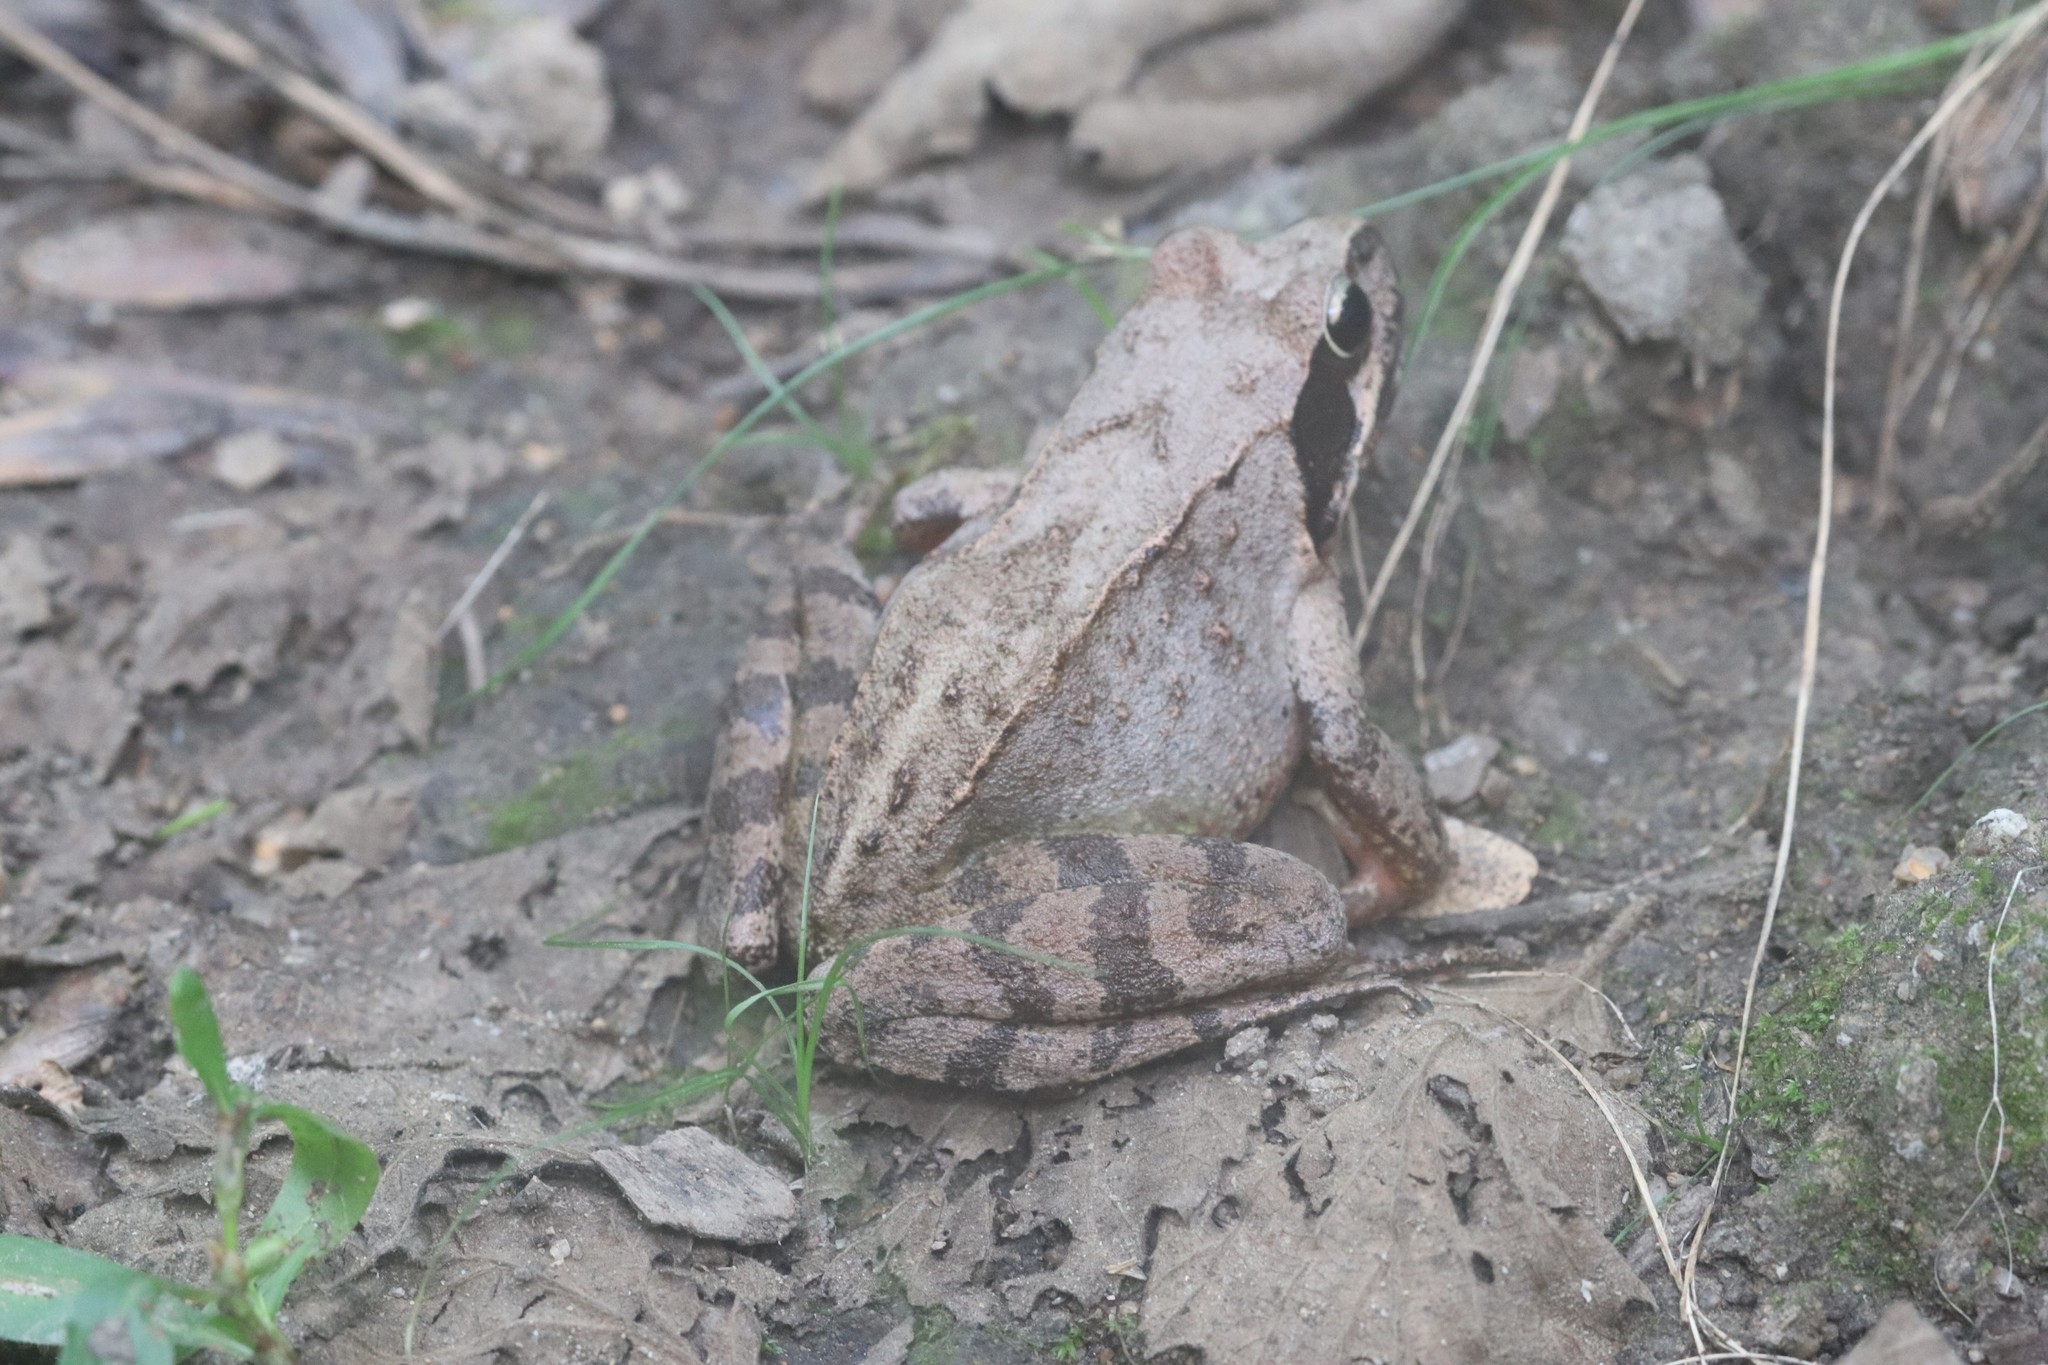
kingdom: Animalia
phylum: Chordata
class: Amphibia
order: Anura
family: Ranidae
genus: Rana
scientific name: Rana dybowskii
